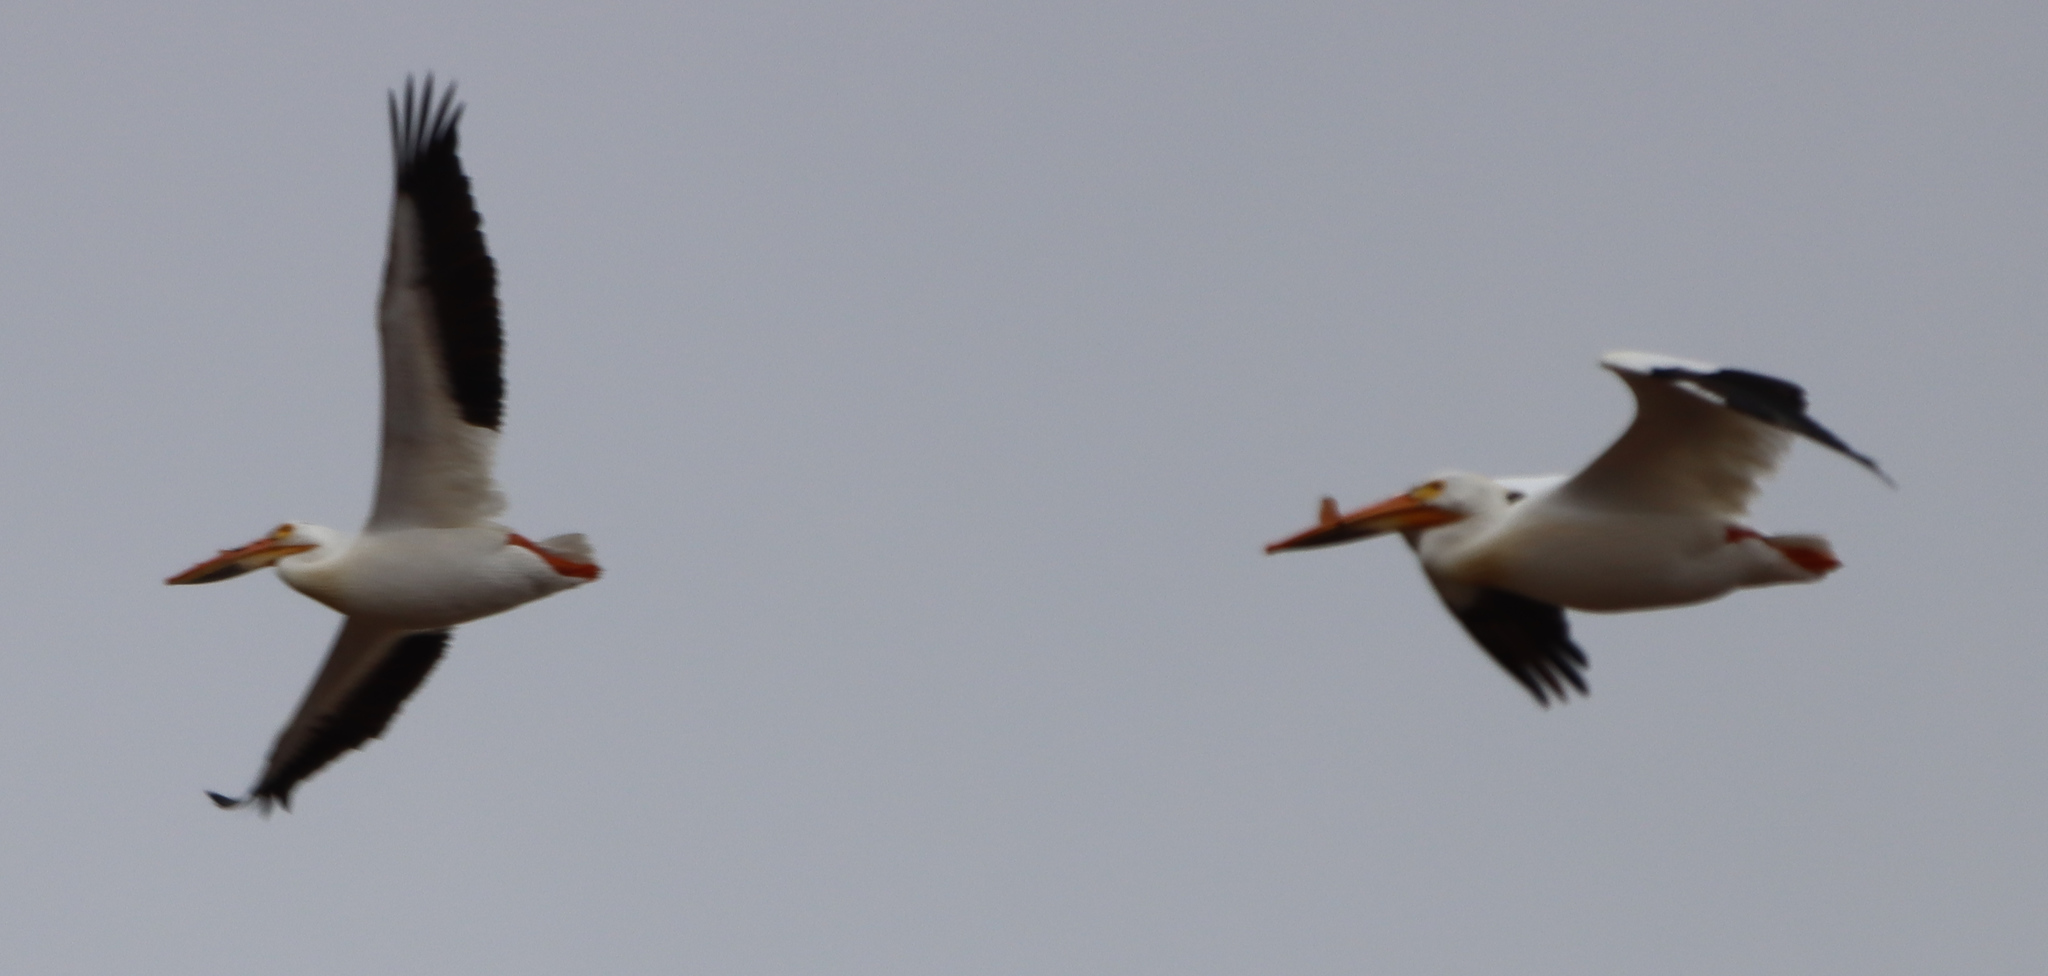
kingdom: Animalia
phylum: Chordata
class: Aves
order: Pelecaniformes
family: Pelecanidae
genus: Pelecanus
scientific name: Pelecanus erythrorhynchos
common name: American white pelican
